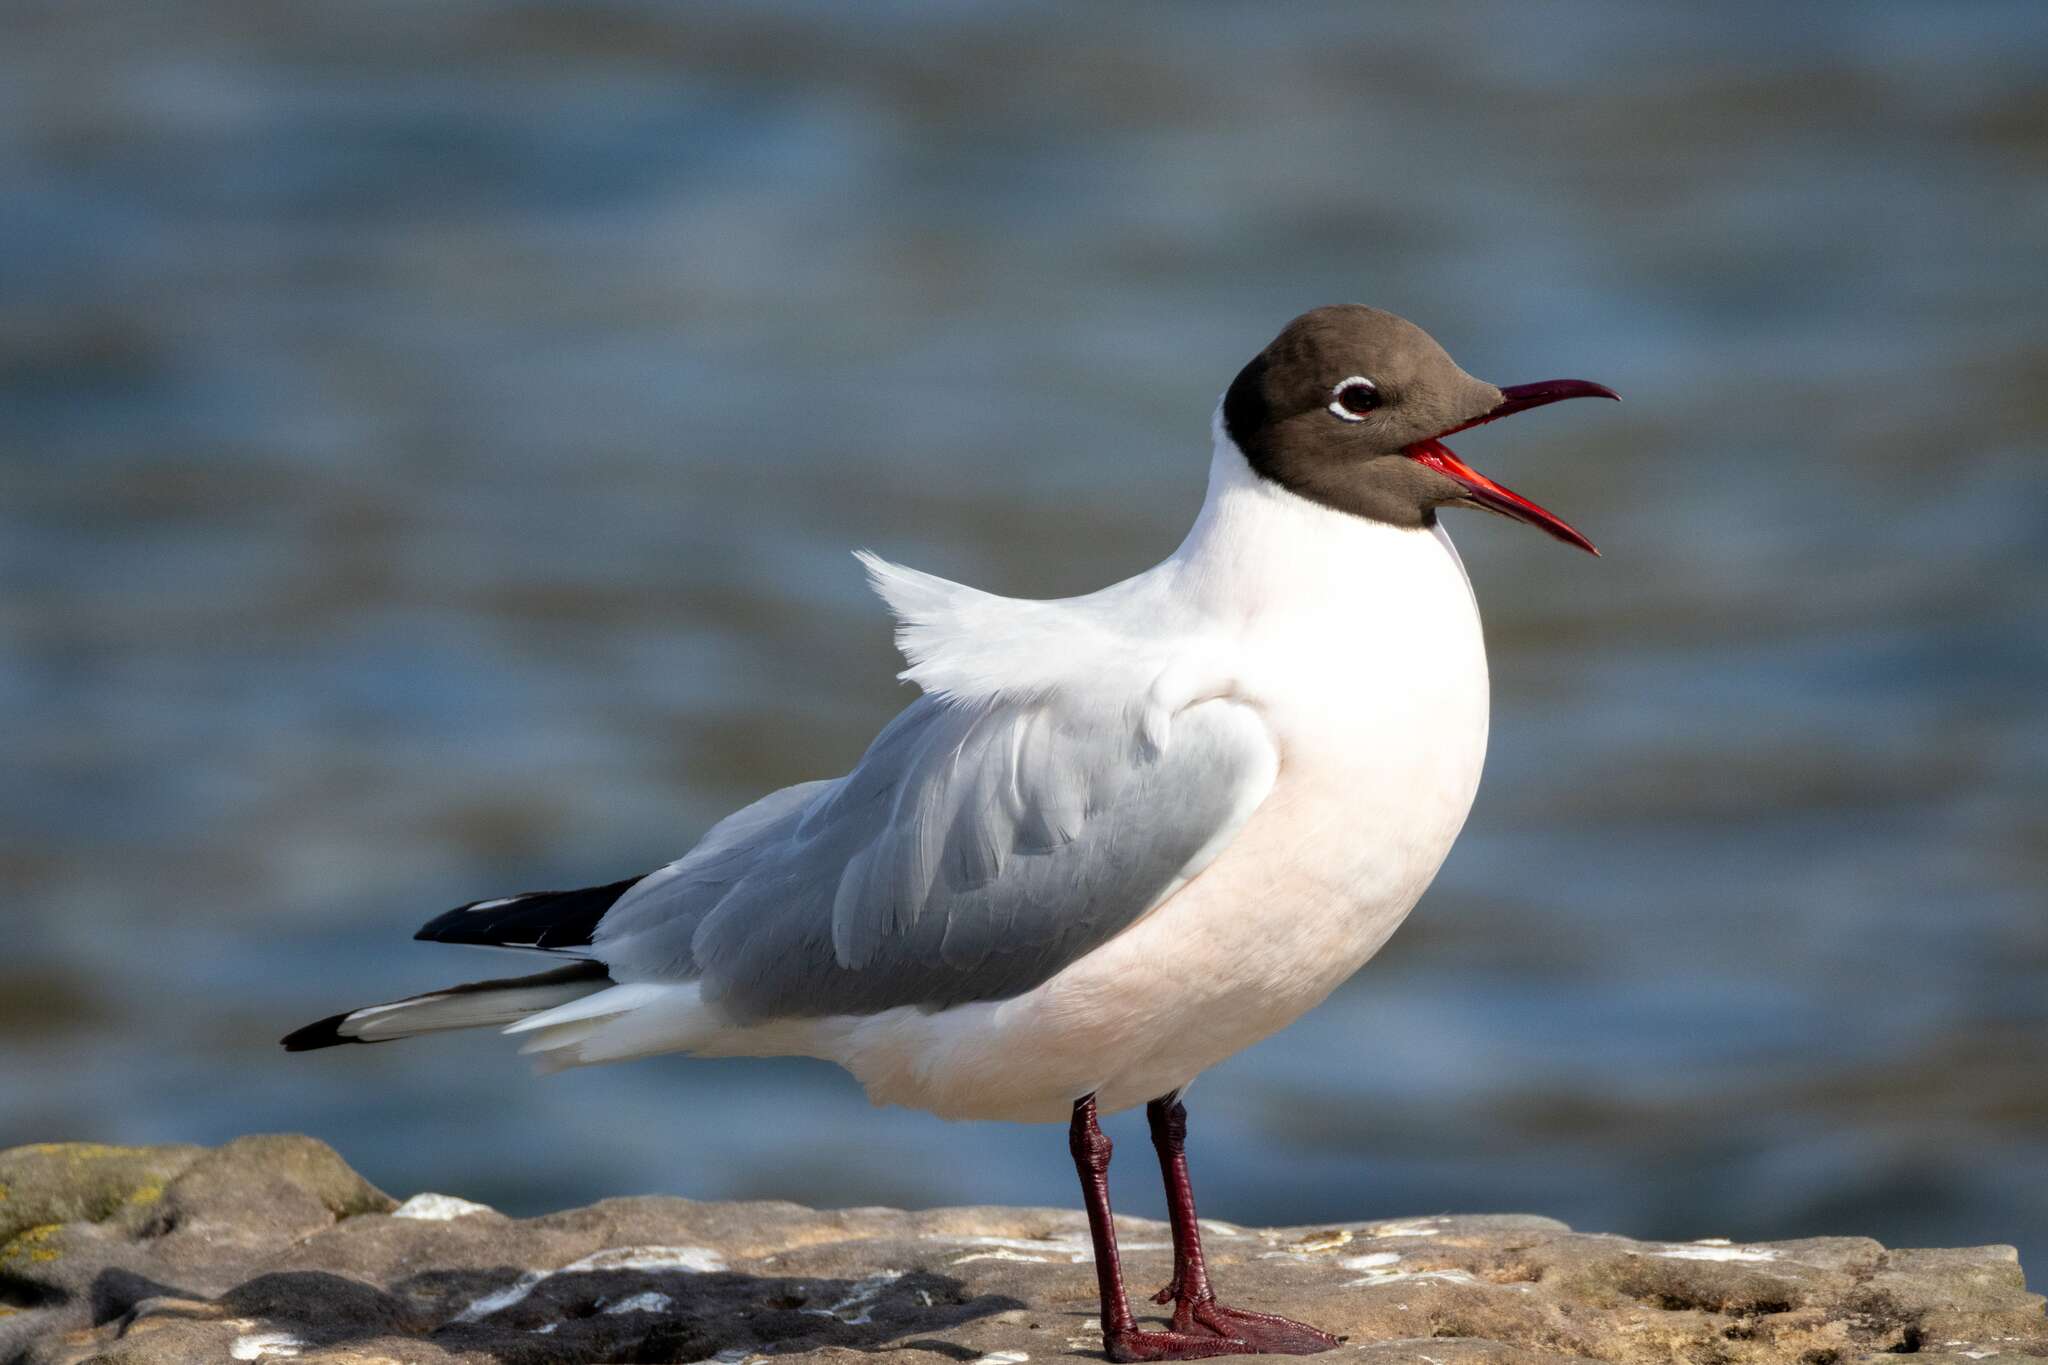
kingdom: Animalia
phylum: Chordata
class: Aves
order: Charadriiformes
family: Laridae
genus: Chroicocephalus
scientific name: Chroicocephalus ridibundus
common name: Black-headed gull
